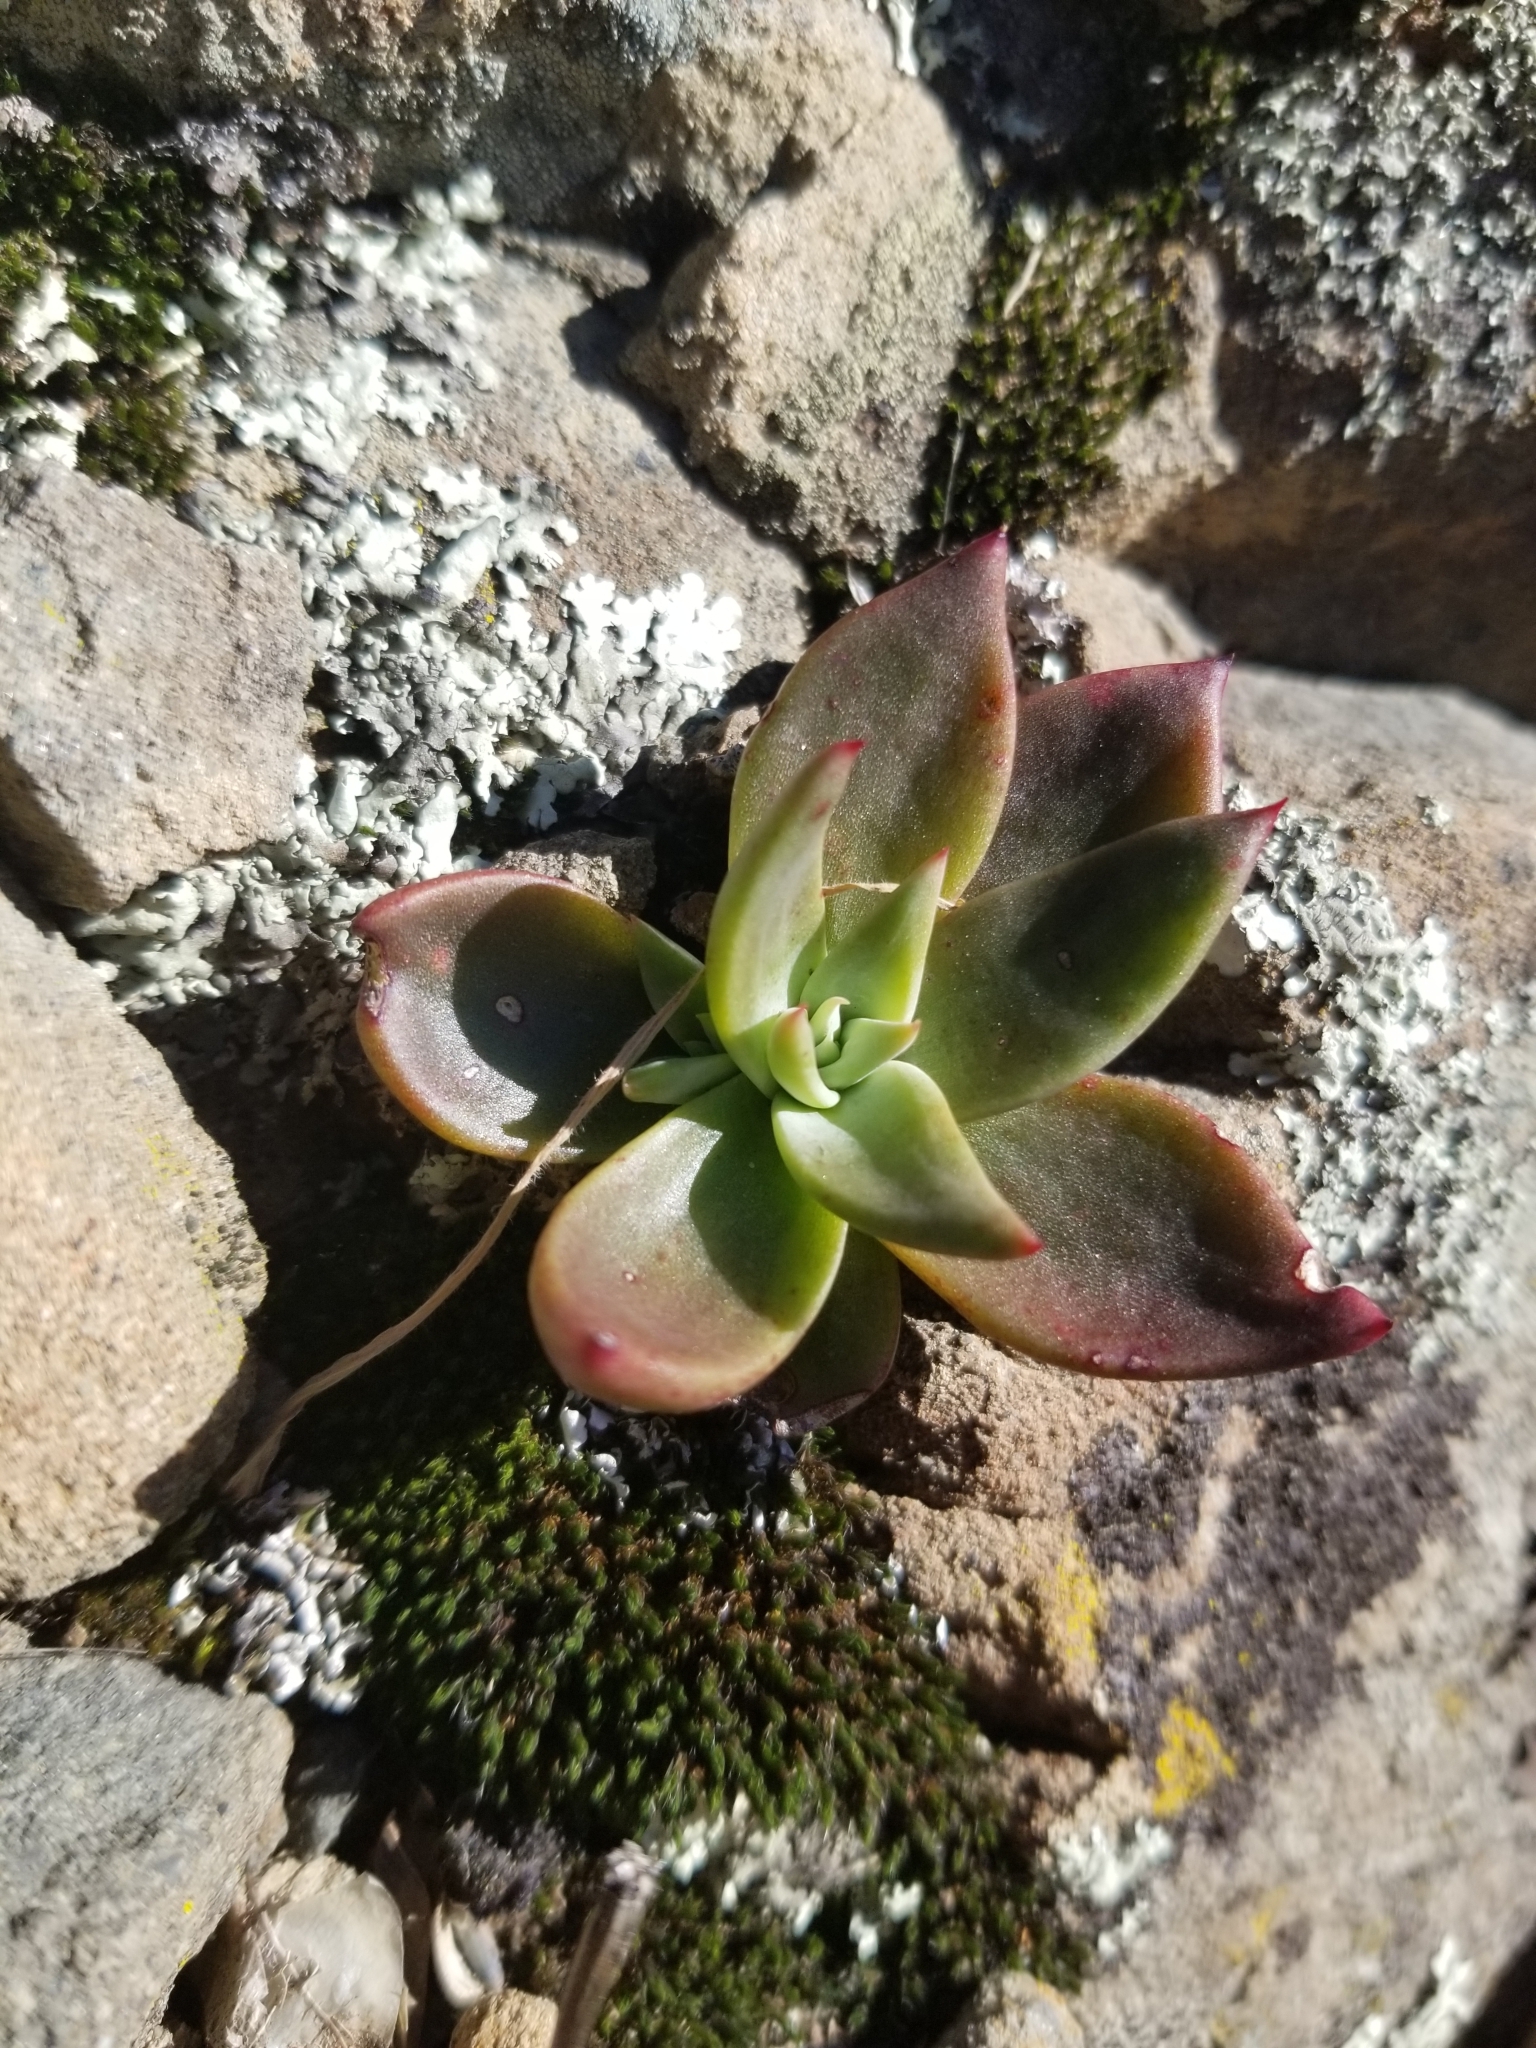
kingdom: Plantae
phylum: Tracheophyta
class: Magnoliopsida
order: Saxifragales
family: Crassulaceae
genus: Dudleya
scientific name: Dudleya cymosa
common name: Canyon dudleya
